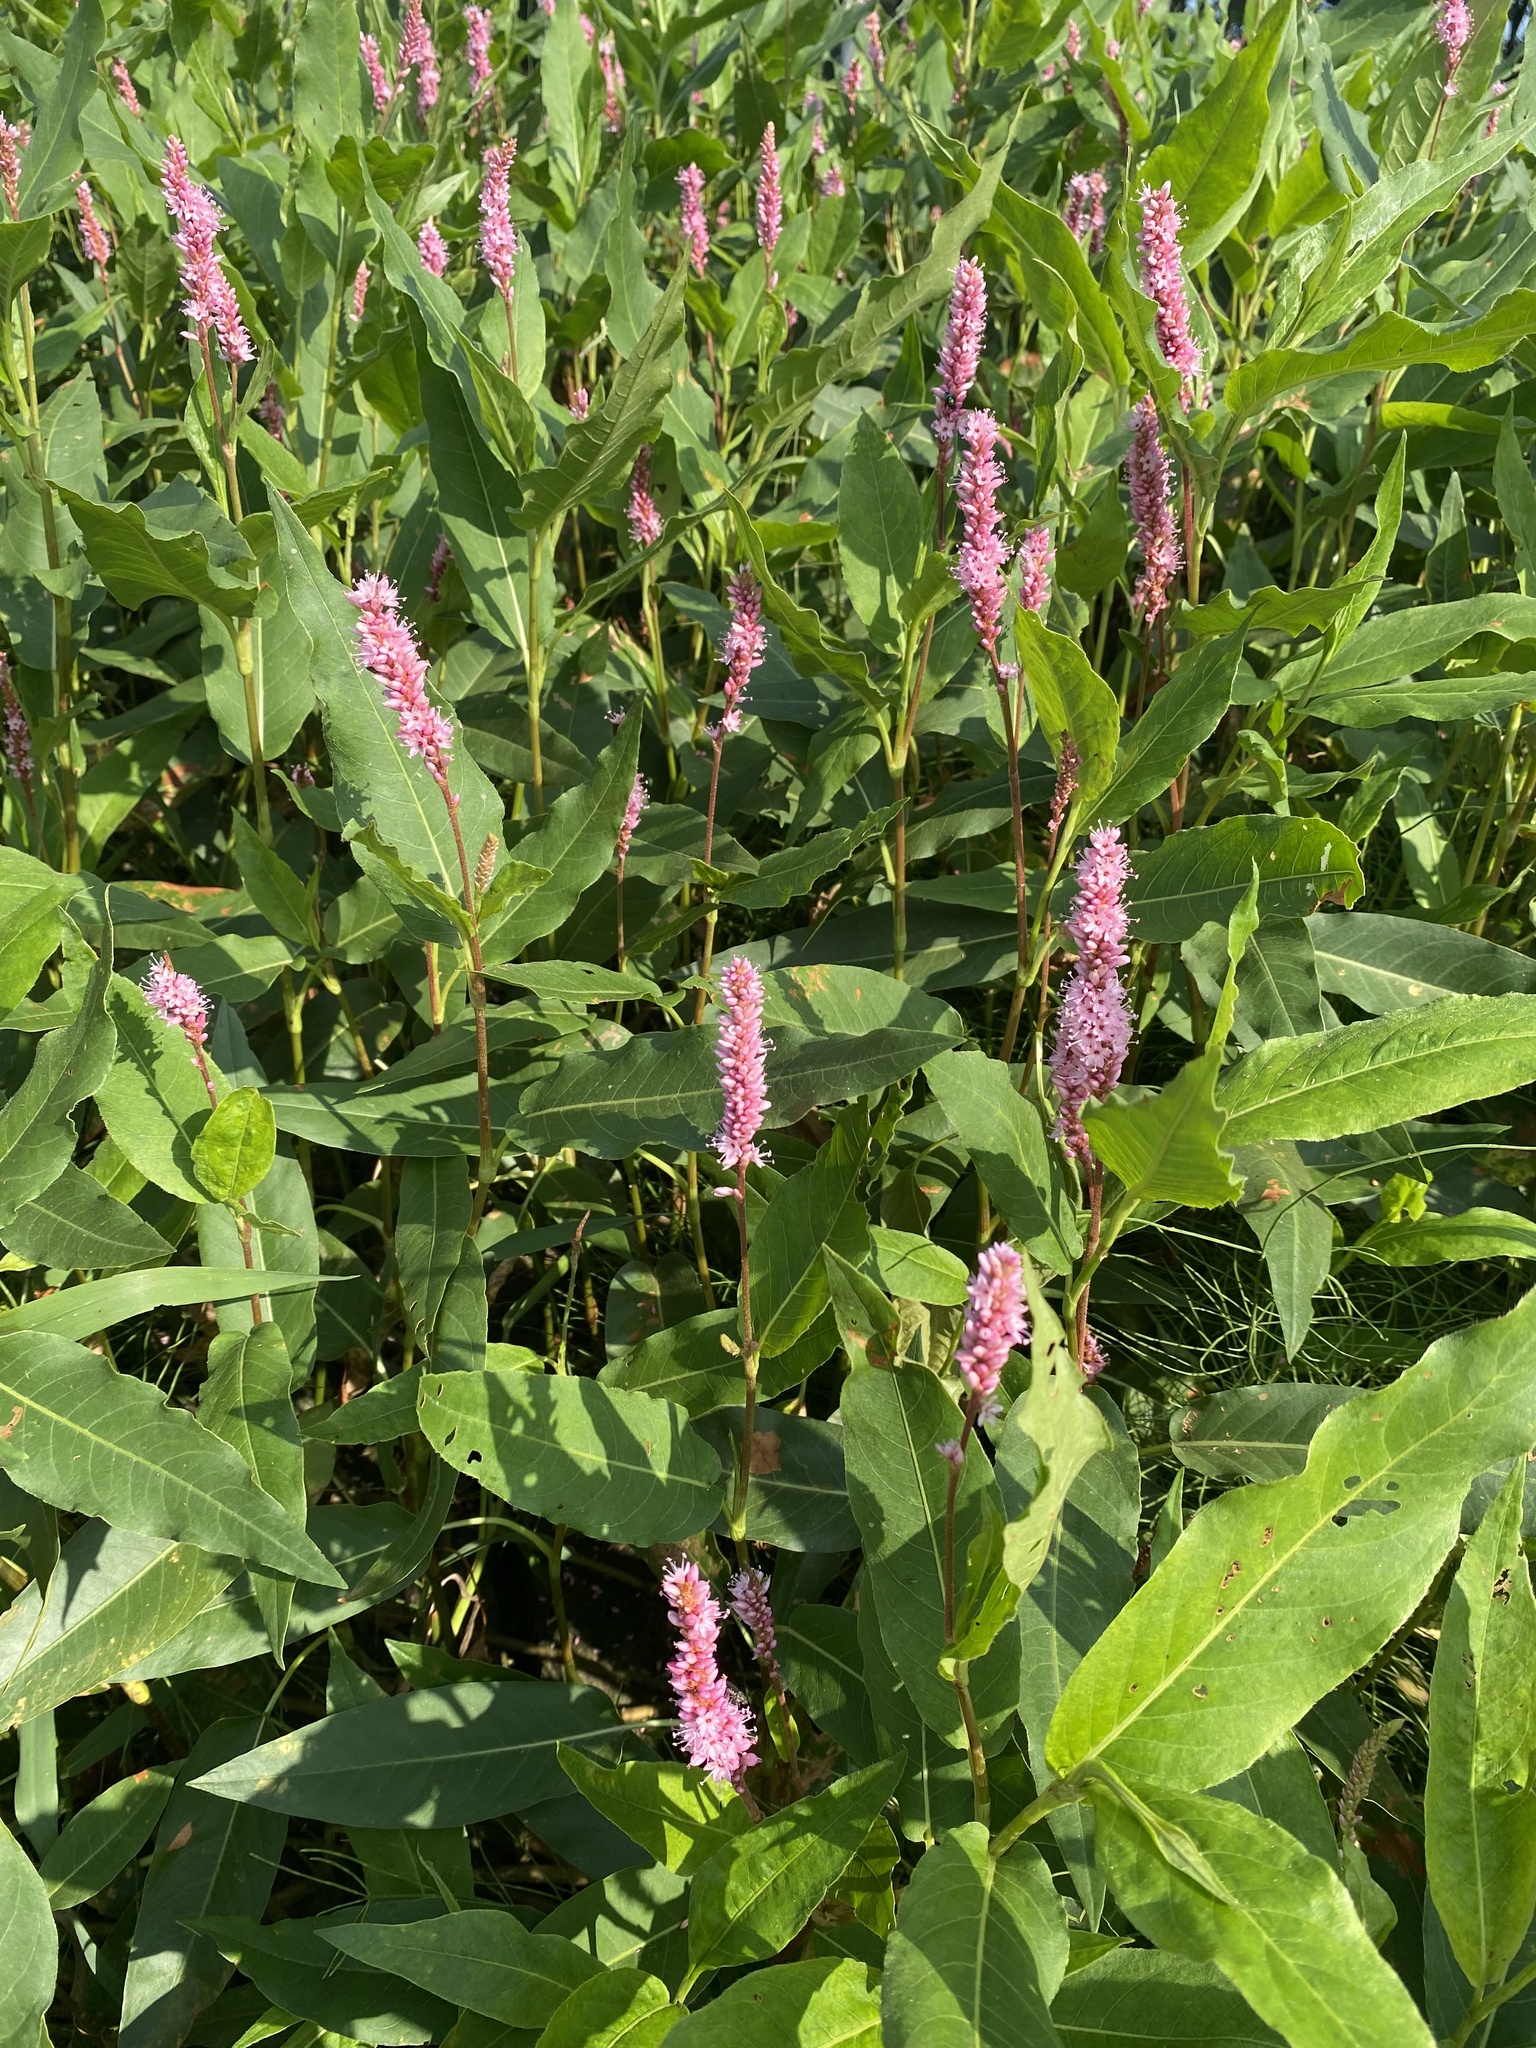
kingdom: Plantae
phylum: Tracheophyta
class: Magnoliopsida
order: Caryophyllales
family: Polygonaceae
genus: Persicaria
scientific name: Persicaria amphibia
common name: Amphibious bistort
